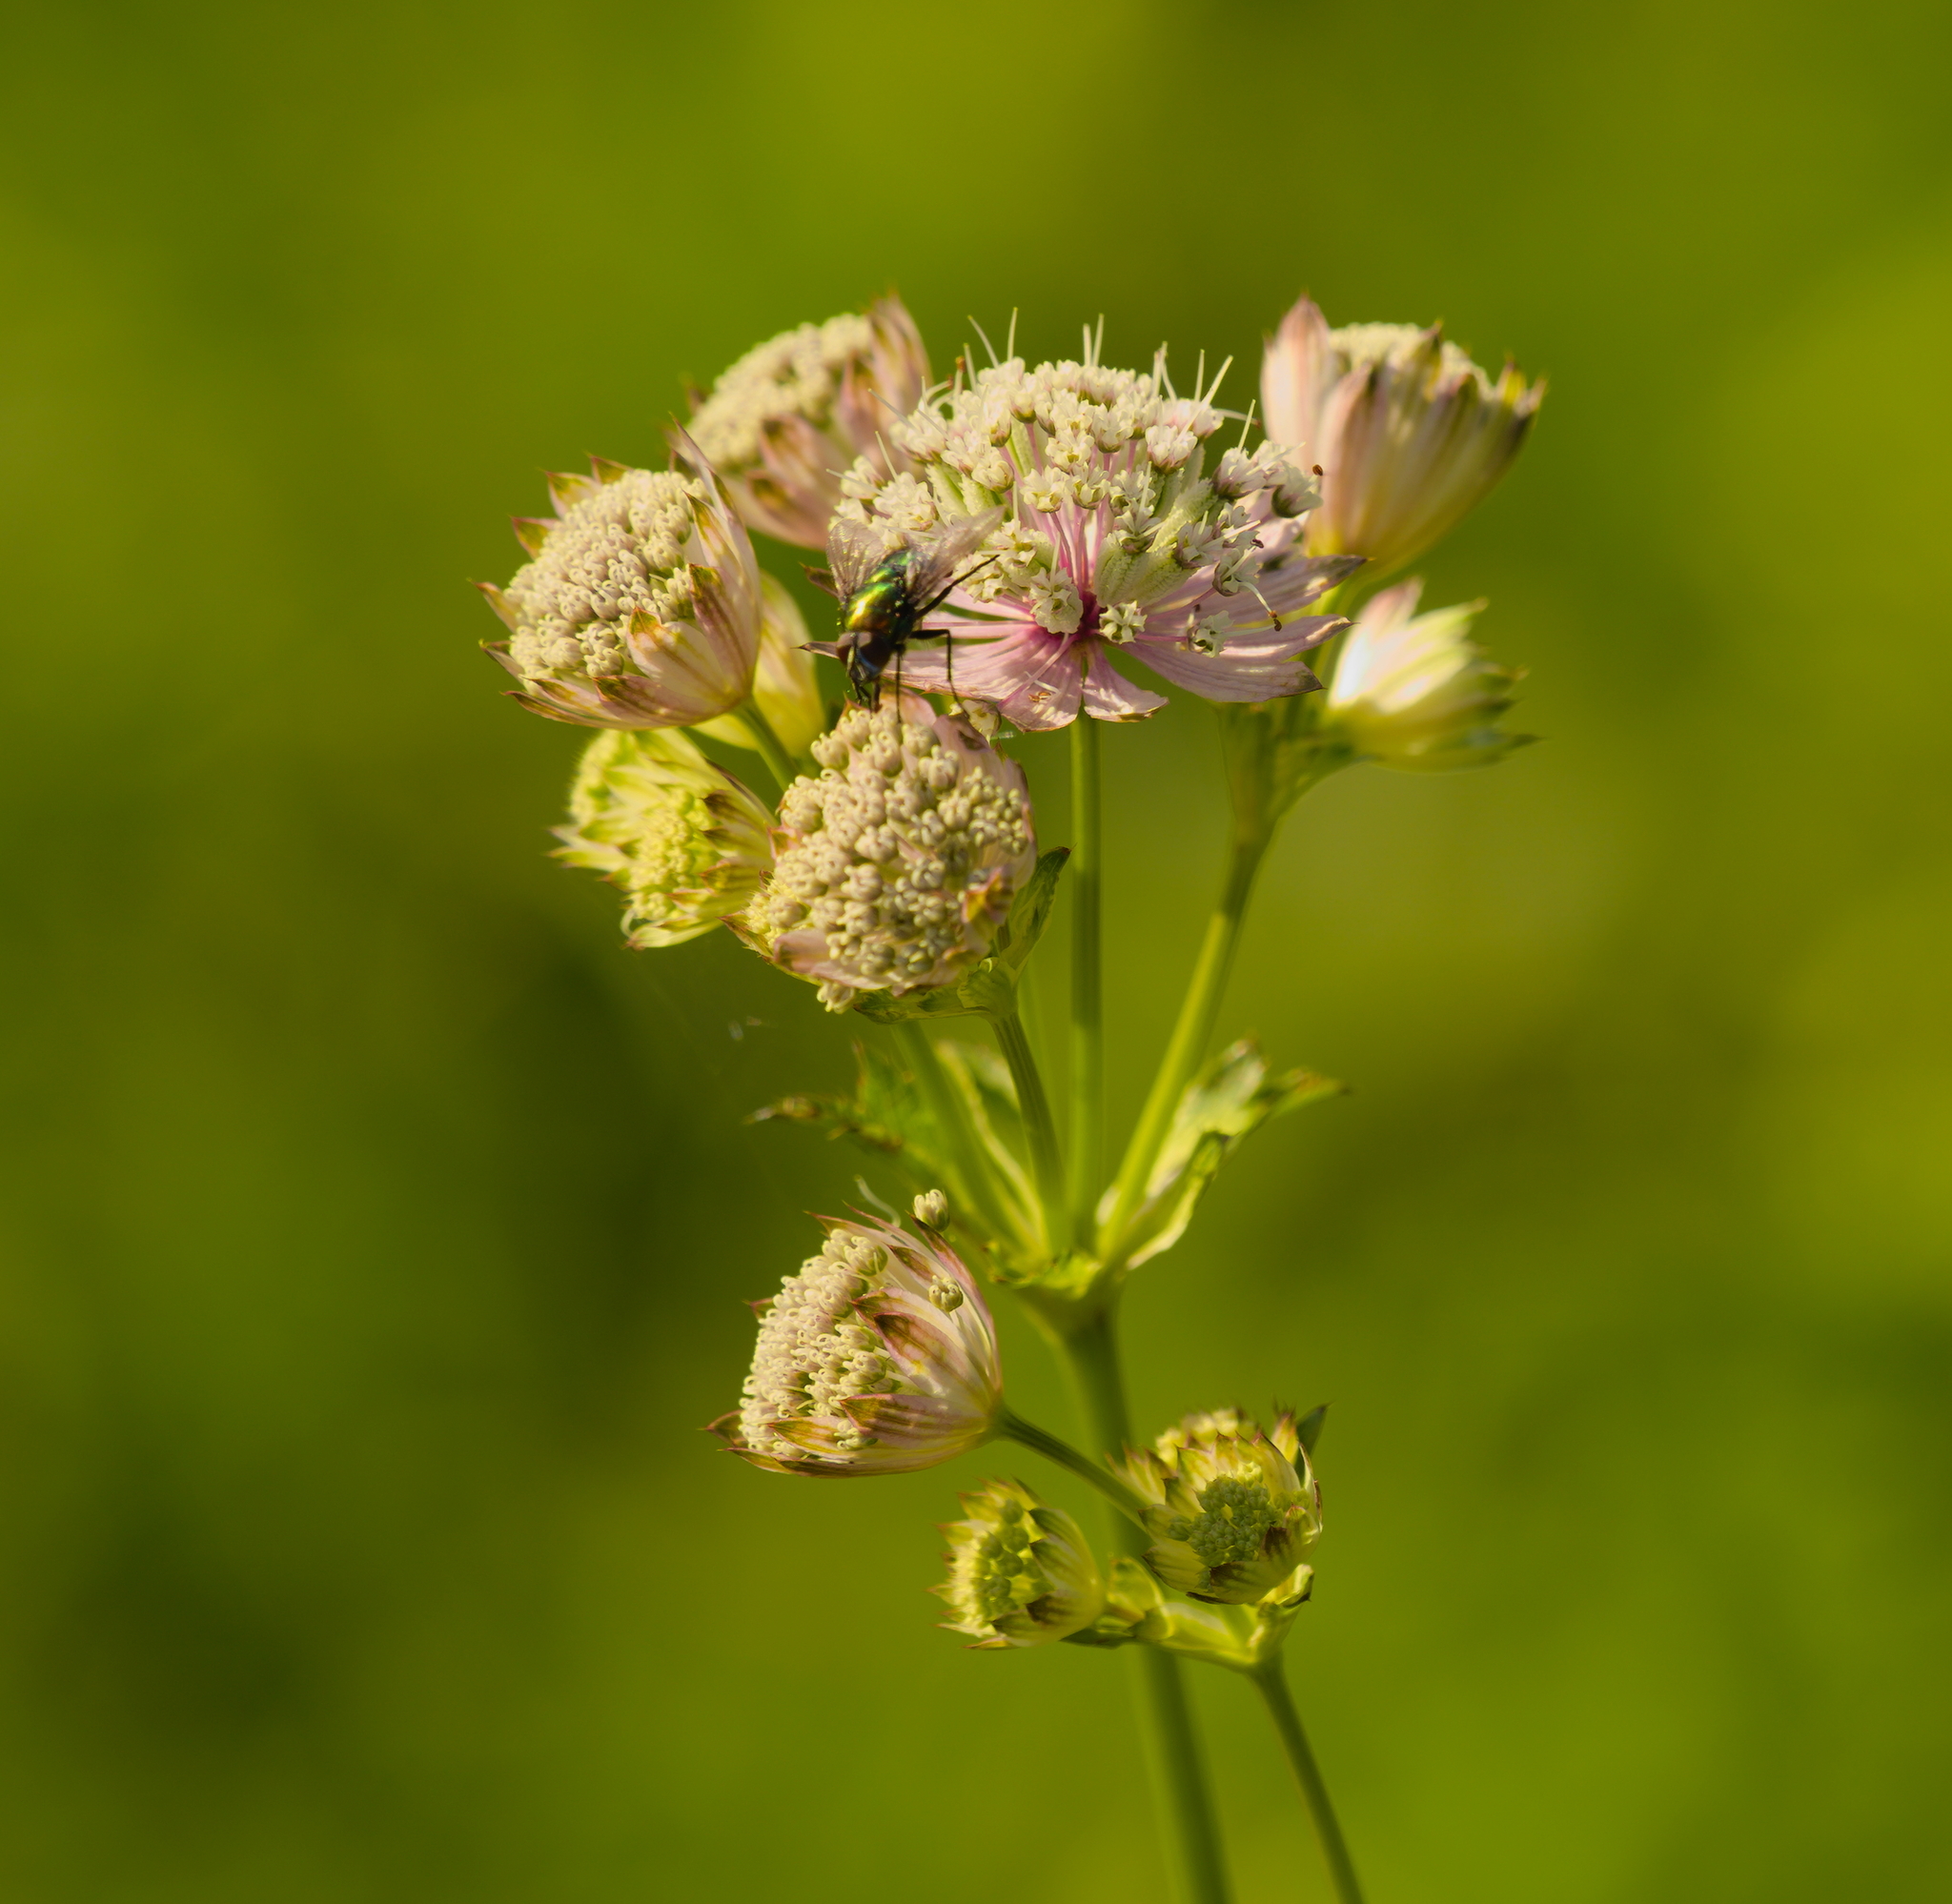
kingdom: Plantae
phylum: Tracheophyta
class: Magnoliopsida
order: Apiales
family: Apiaceae
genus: Astrantia
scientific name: Astrantia major
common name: Greater masterwort
